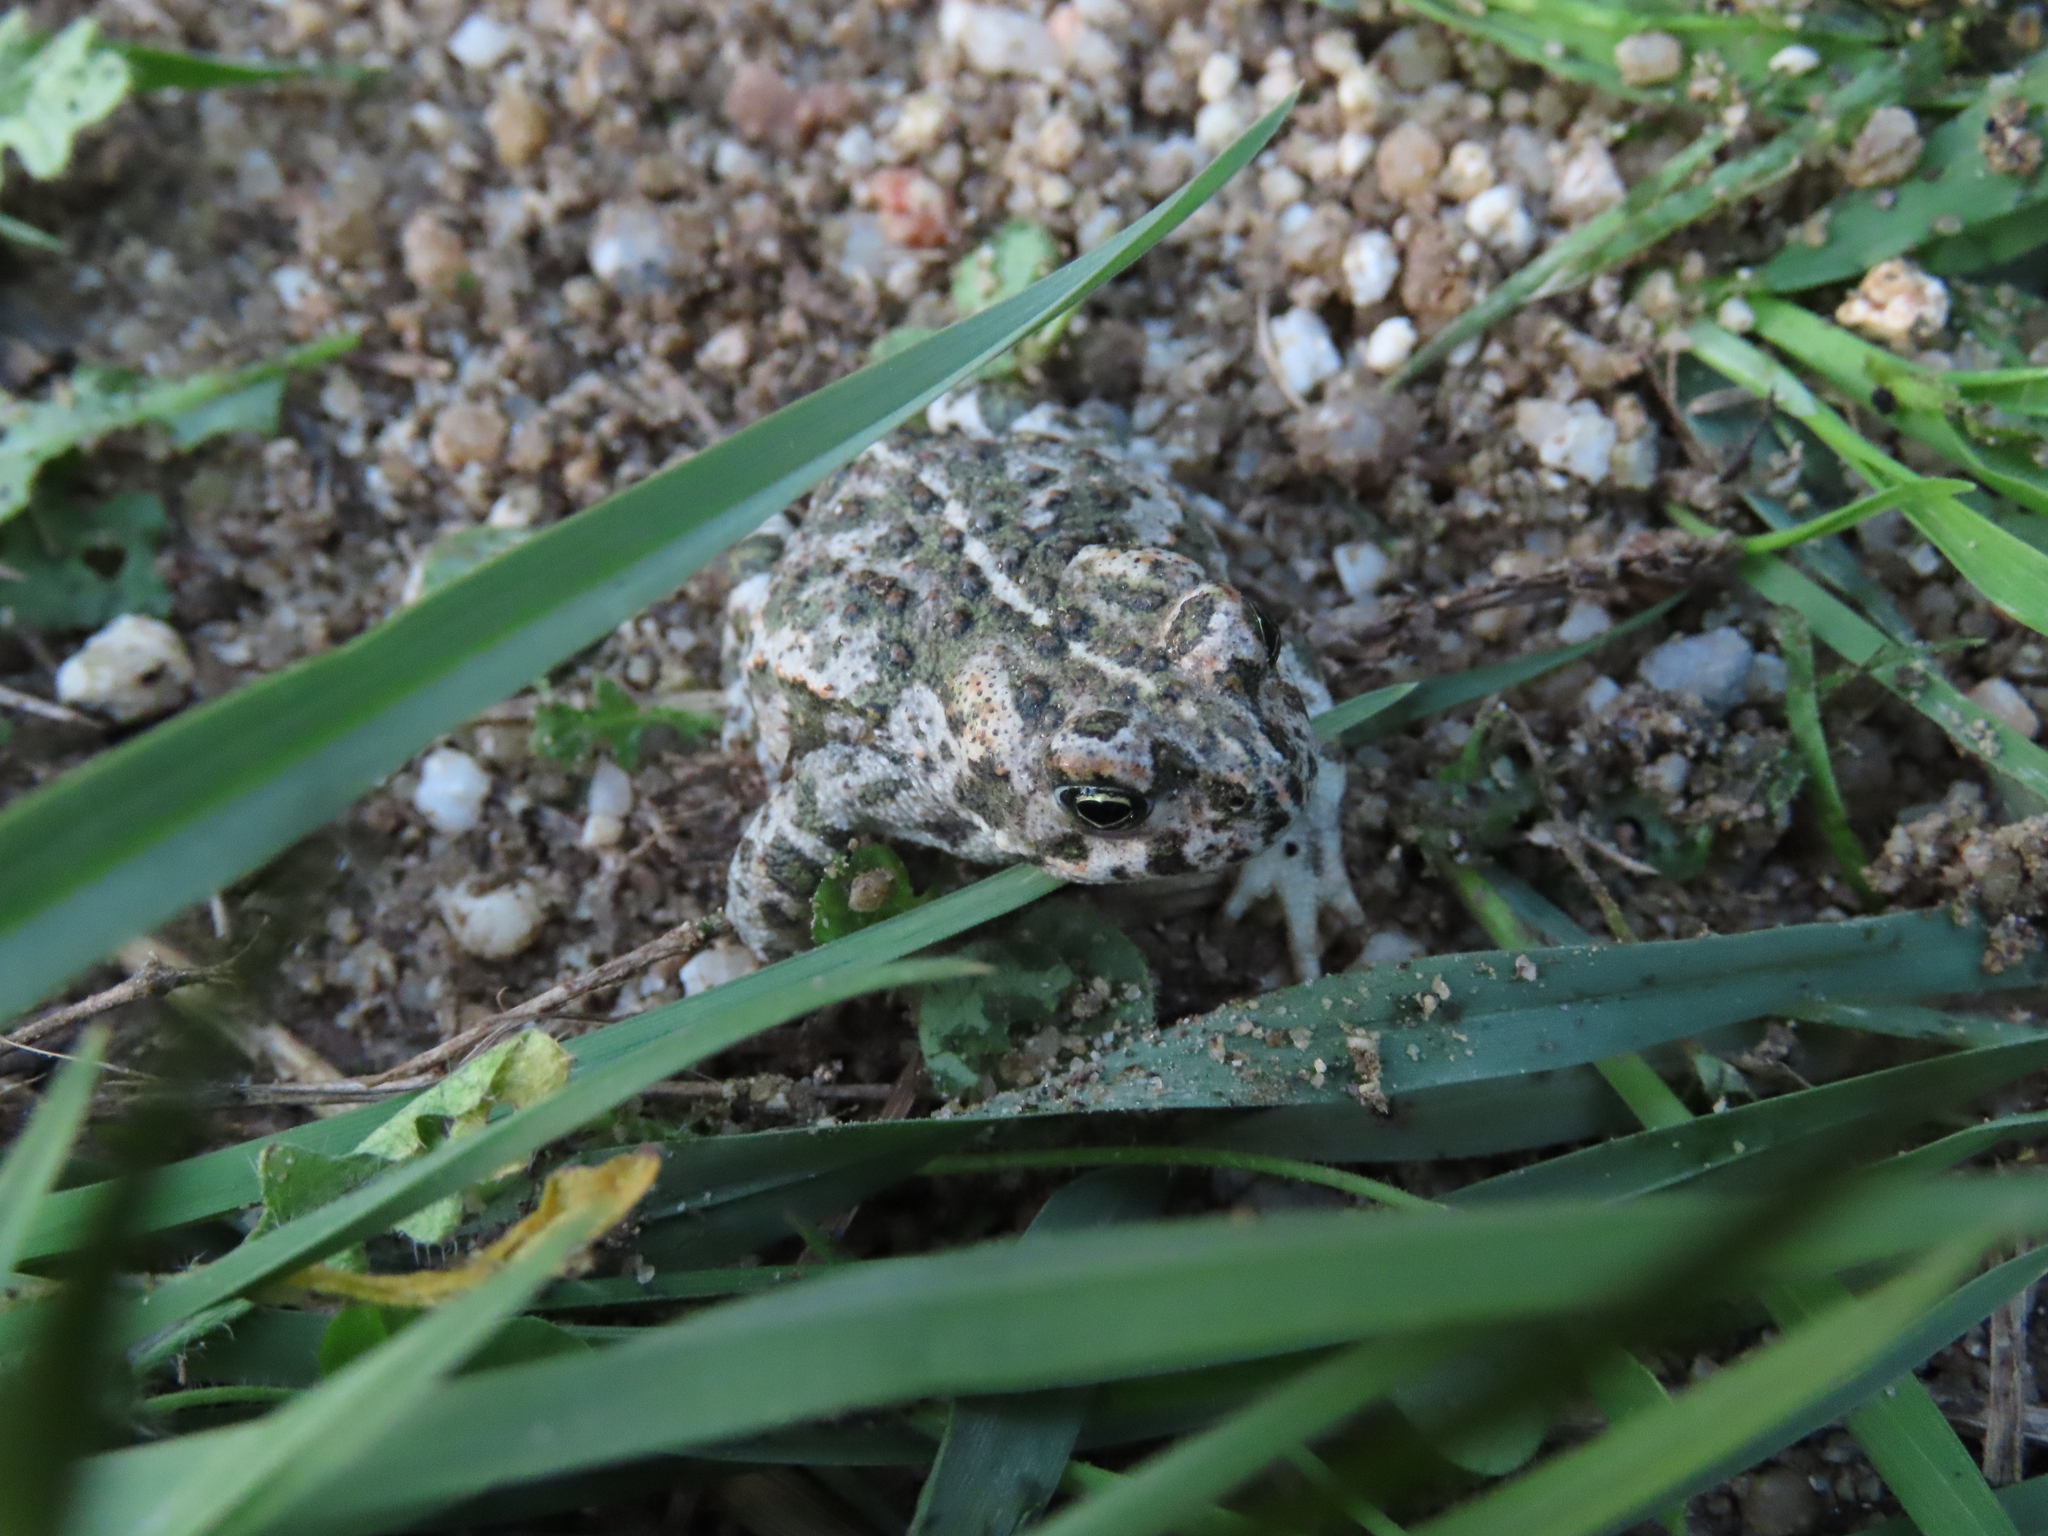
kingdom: Animalia
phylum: Chordata
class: Amphibia
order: Anura
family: Bufonidae
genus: Epidalea
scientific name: Epidalea calamita
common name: Natterjack toad
